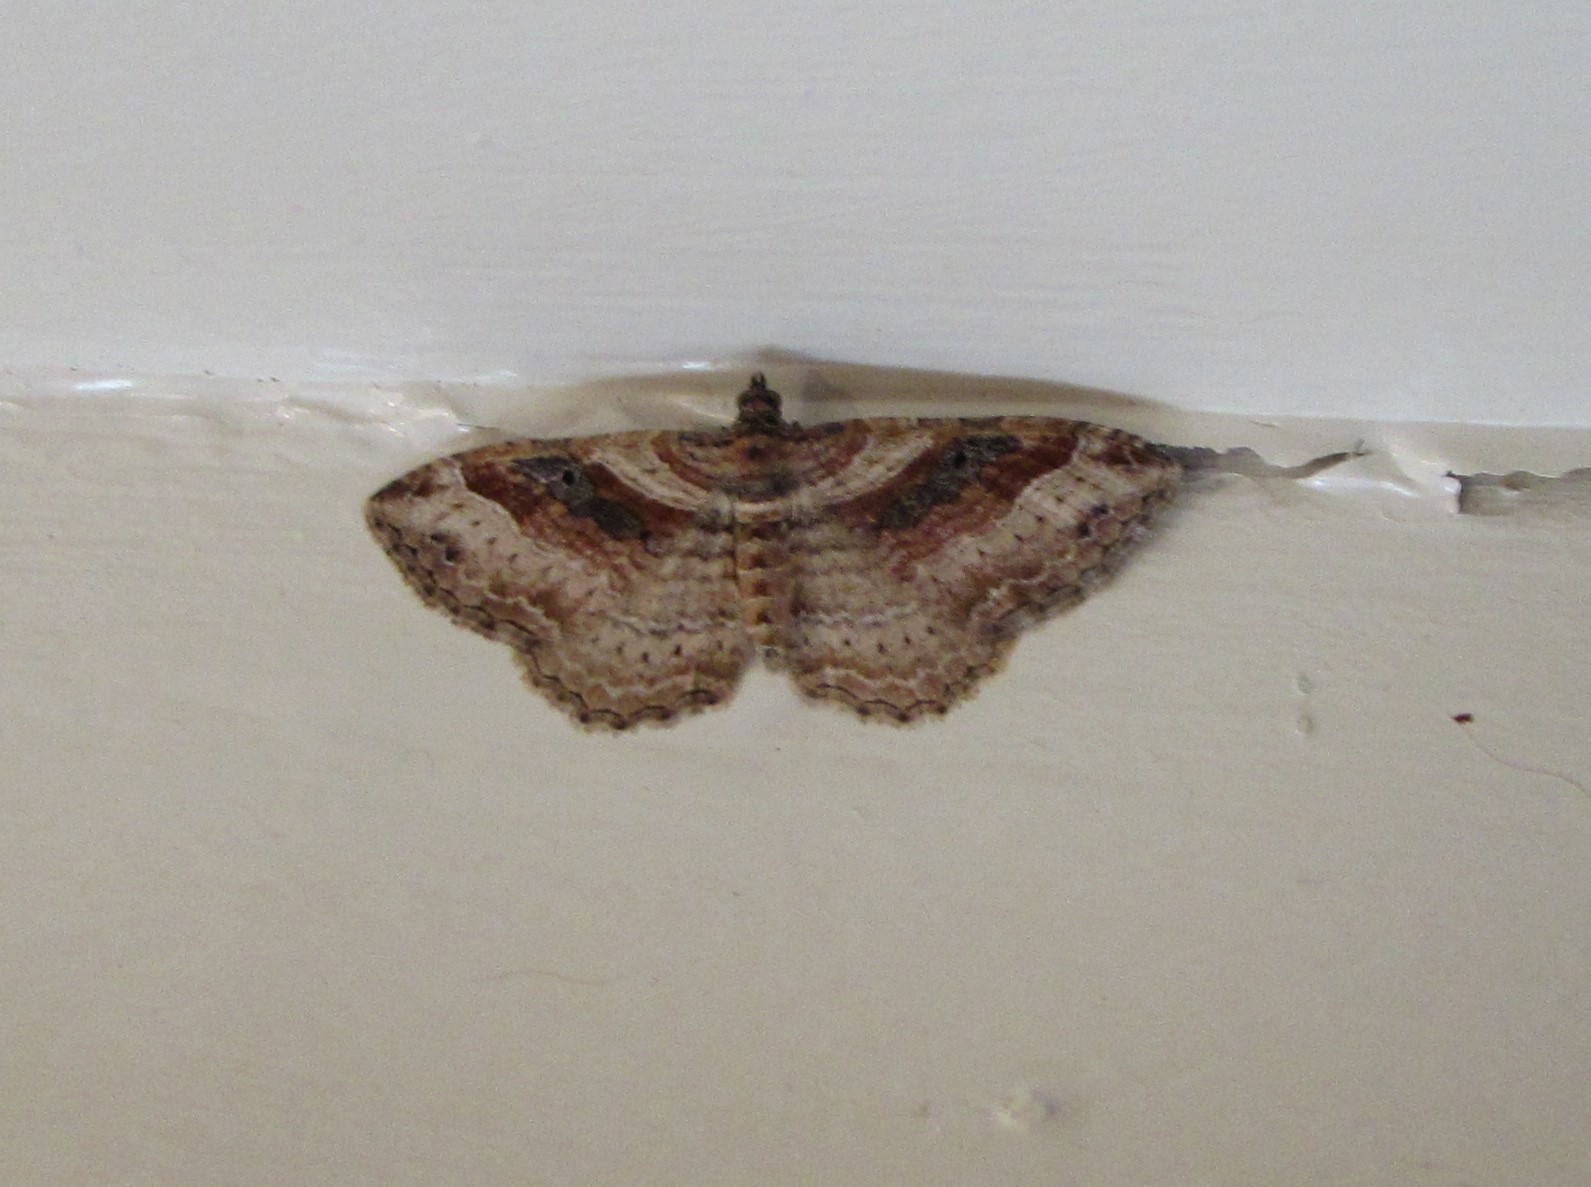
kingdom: Animalia
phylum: Arthropoda
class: Insecta
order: Lepidoptera
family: Geometridae
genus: Costaconvexa
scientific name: Costaconvexa centrostrigaria
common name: Bent-line carpet
